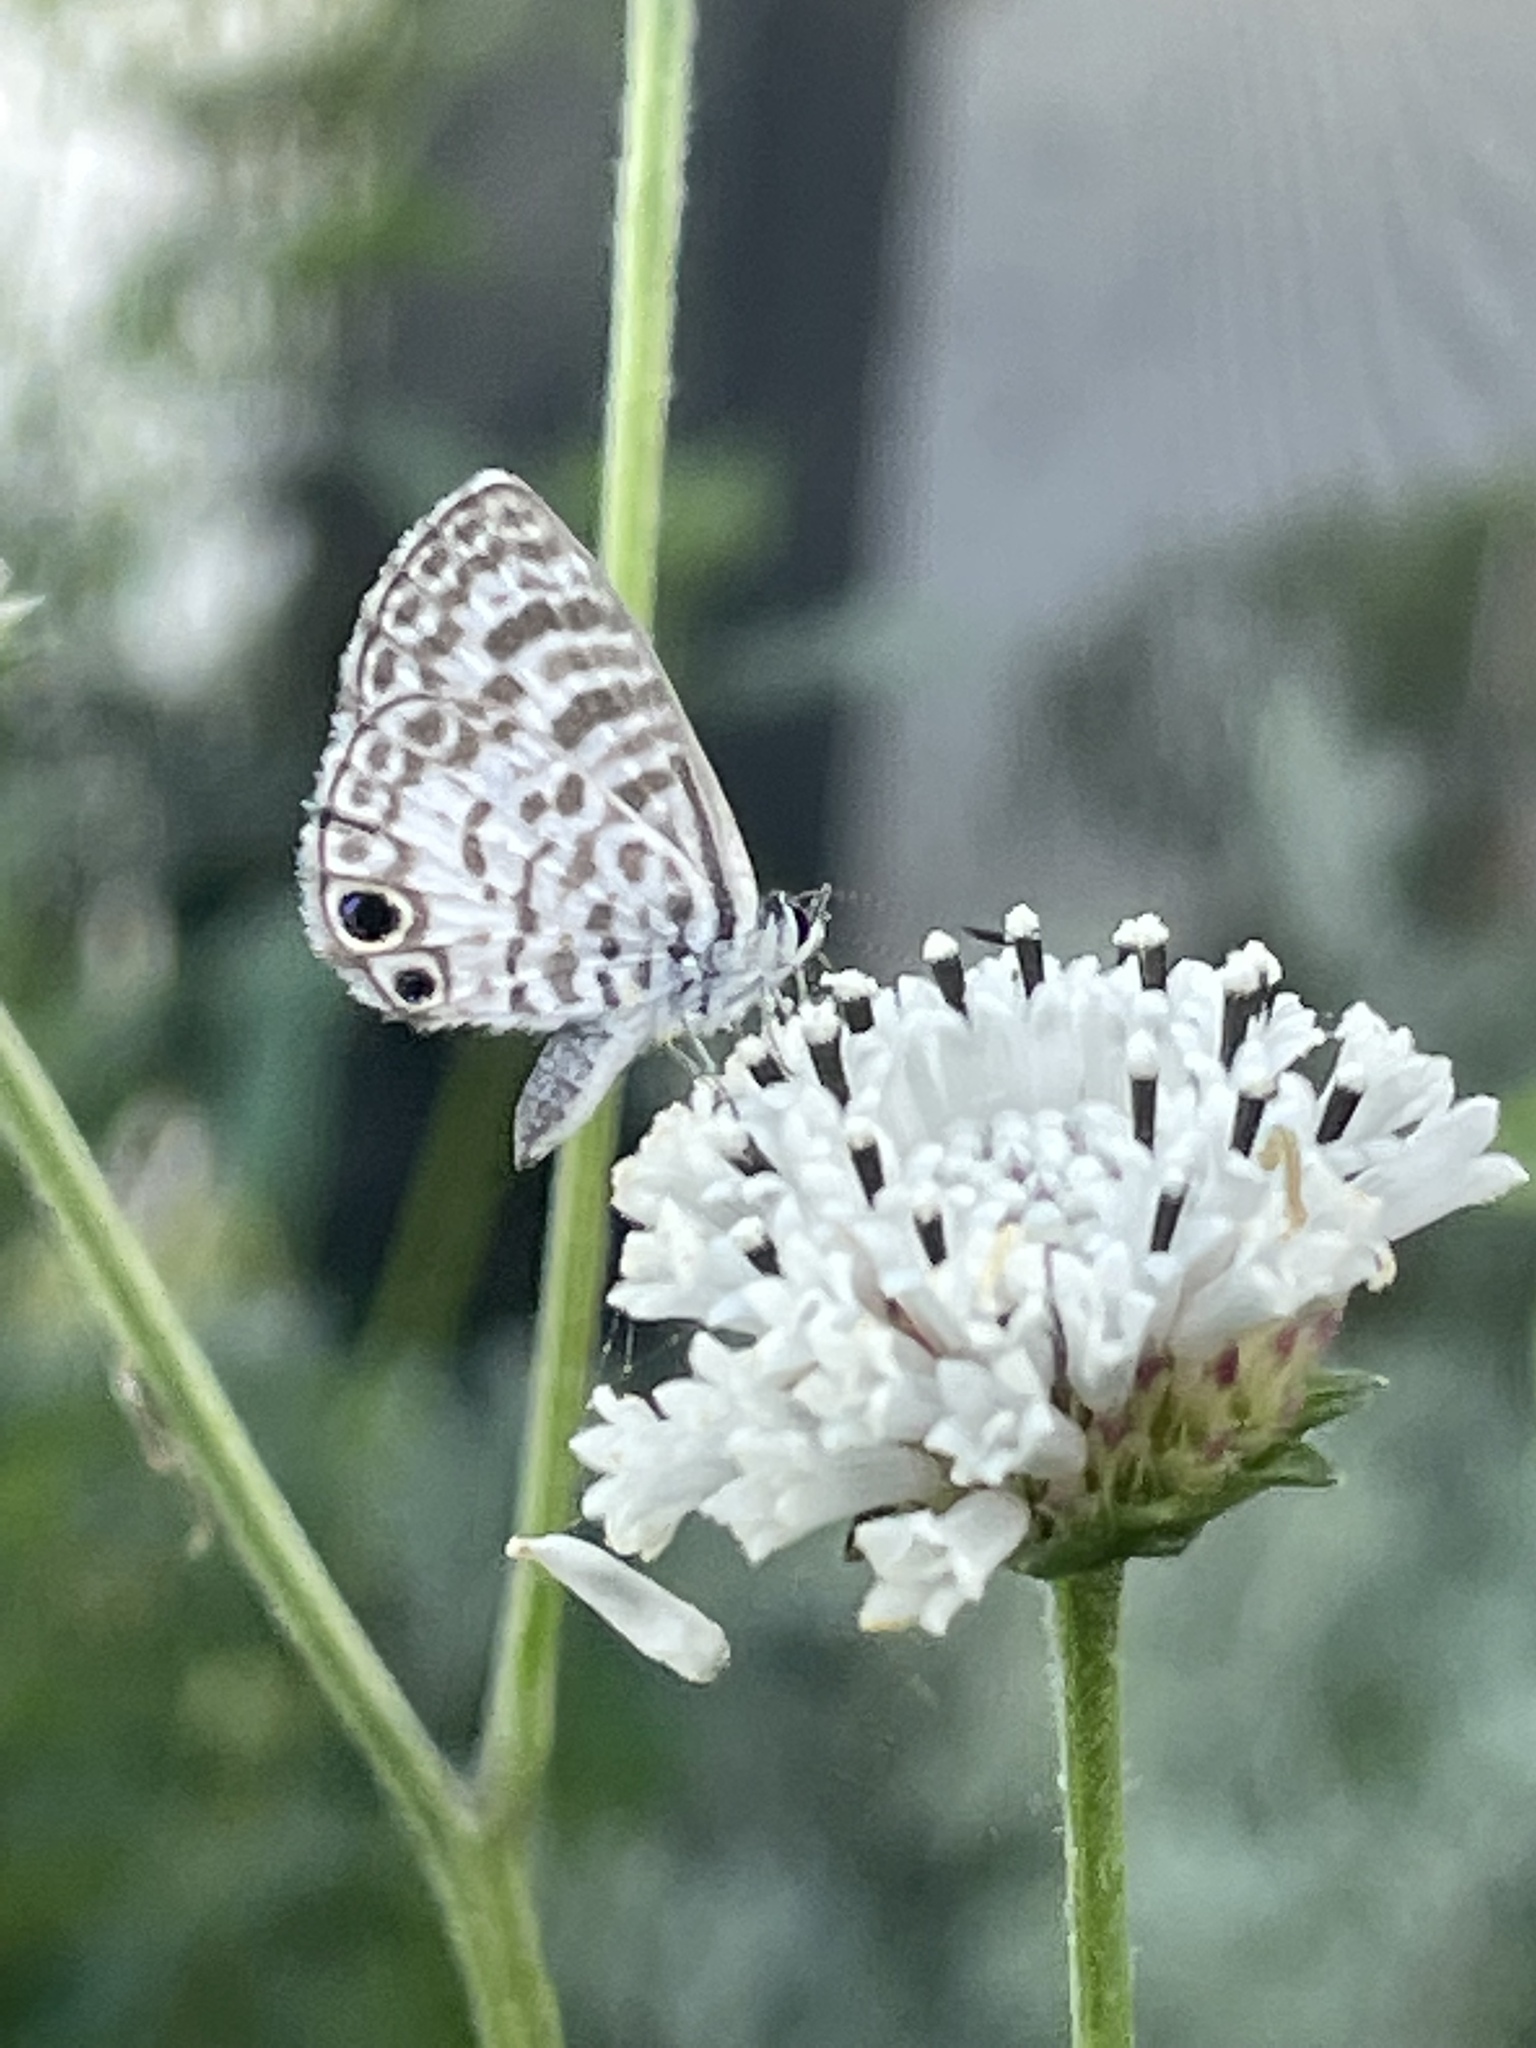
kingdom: Animalia
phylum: Arthropoda
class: Insecta
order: Lepidoptera
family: Lycaenidae
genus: Leptotes
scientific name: Leptotes cassius
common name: Cassius blue
